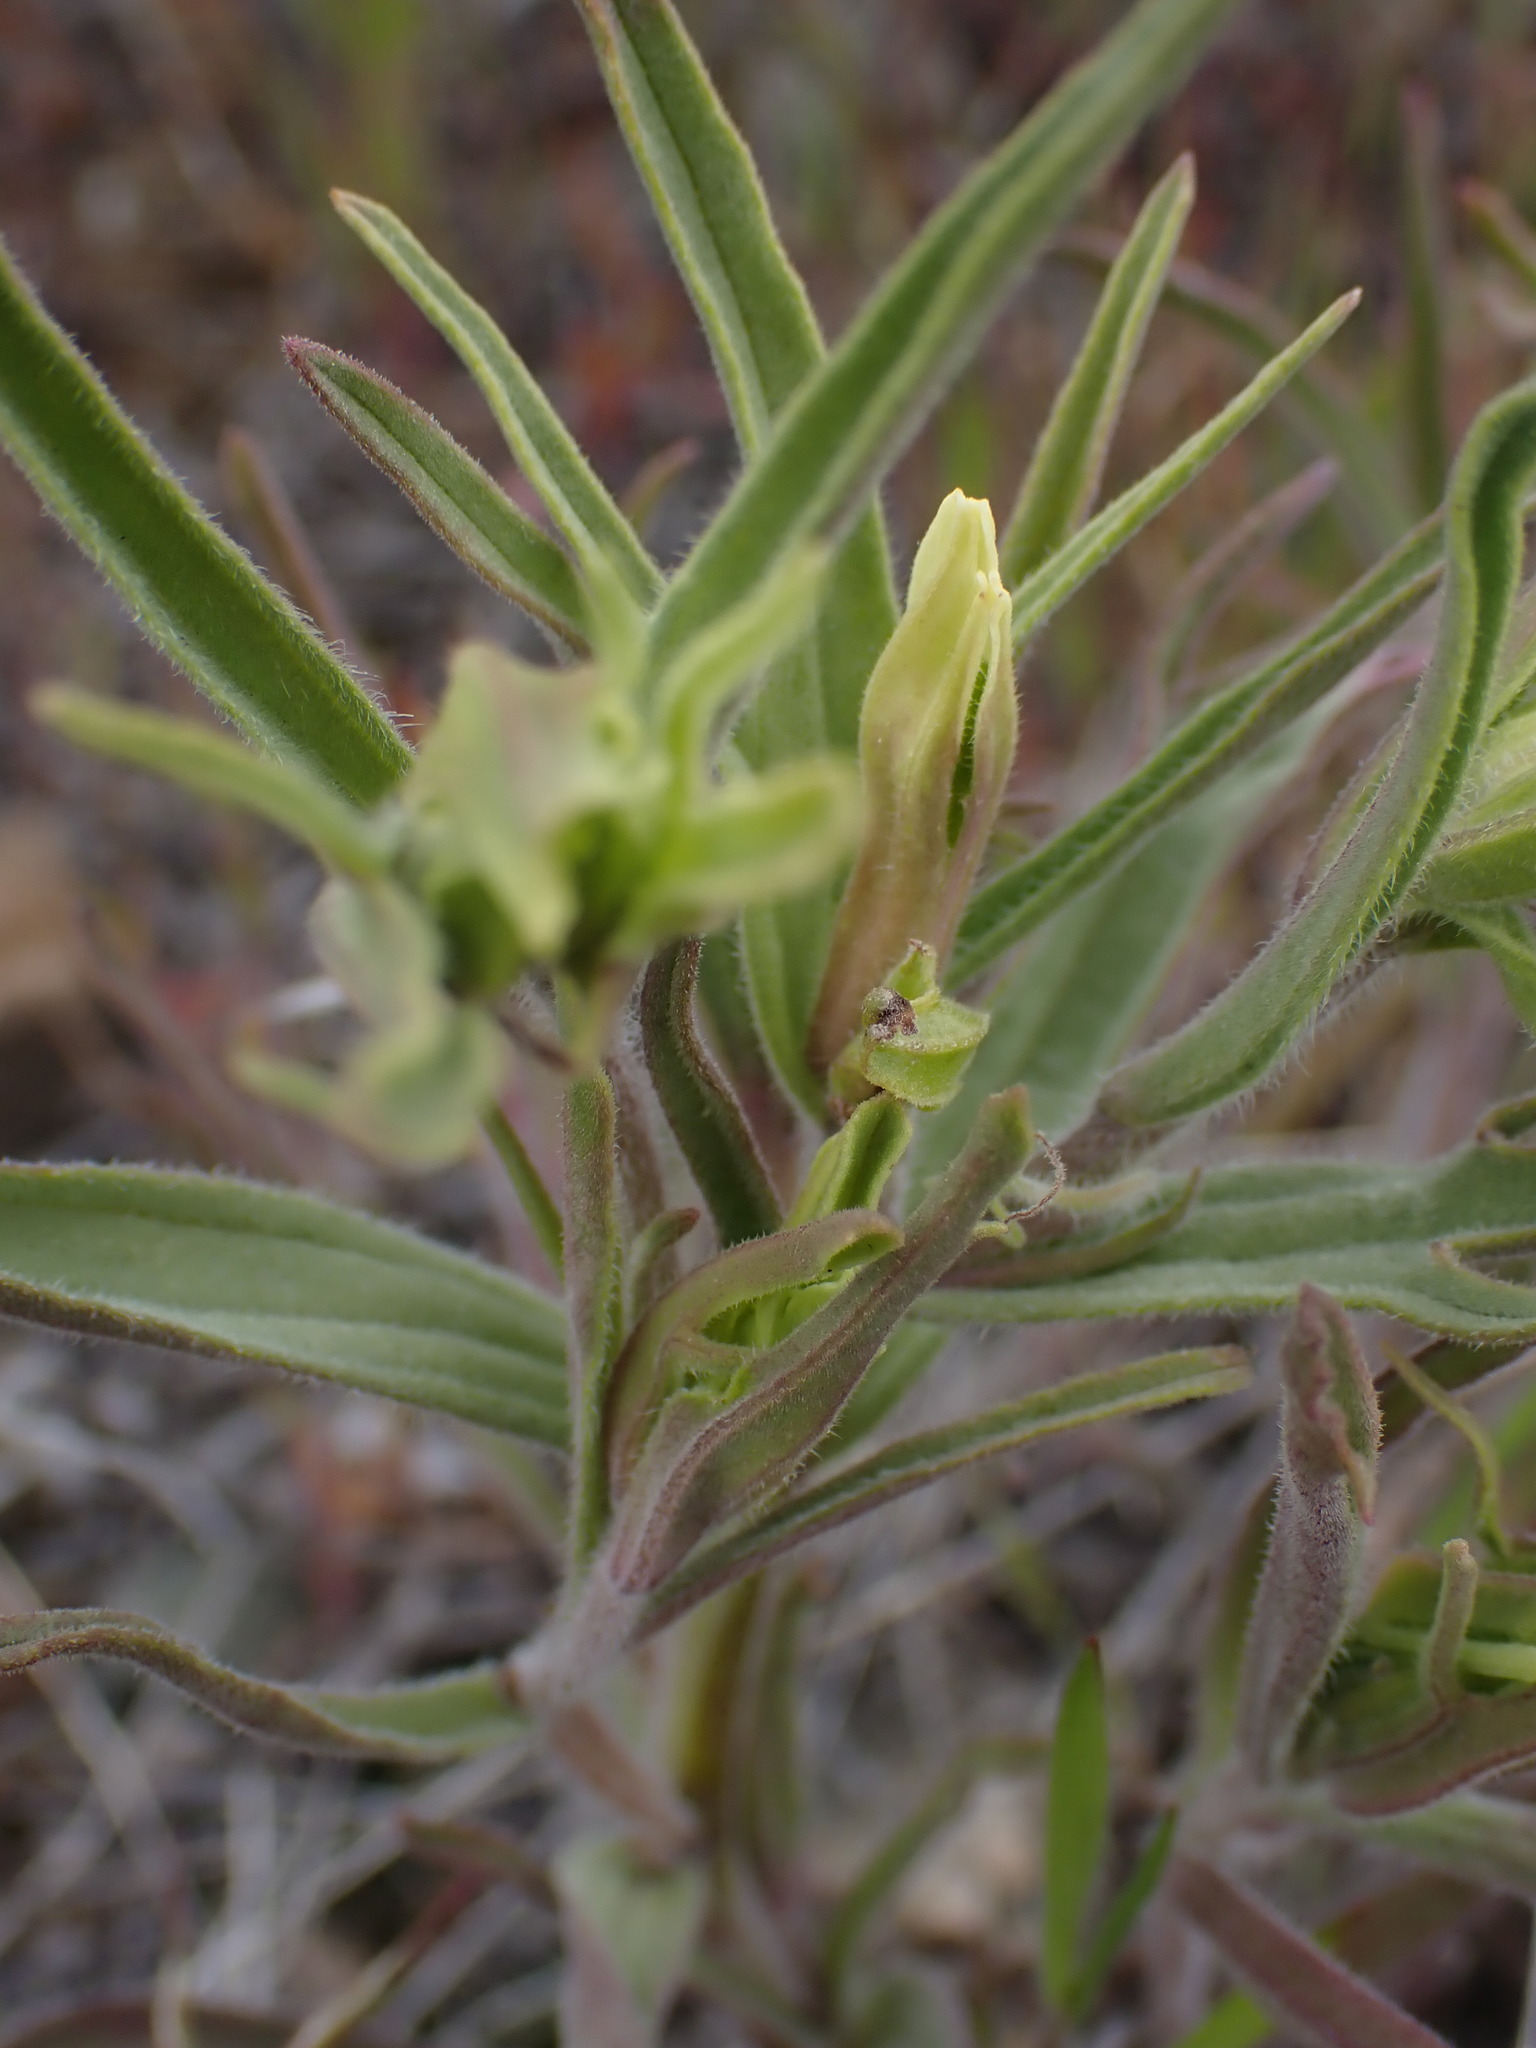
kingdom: Plantae
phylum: Tracheophyta
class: Magnoliopsida
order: Lamiales
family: Orobanchaceae
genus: Castilleja
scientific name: Castilleja thompsonii
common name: Thompson's paintbrush
